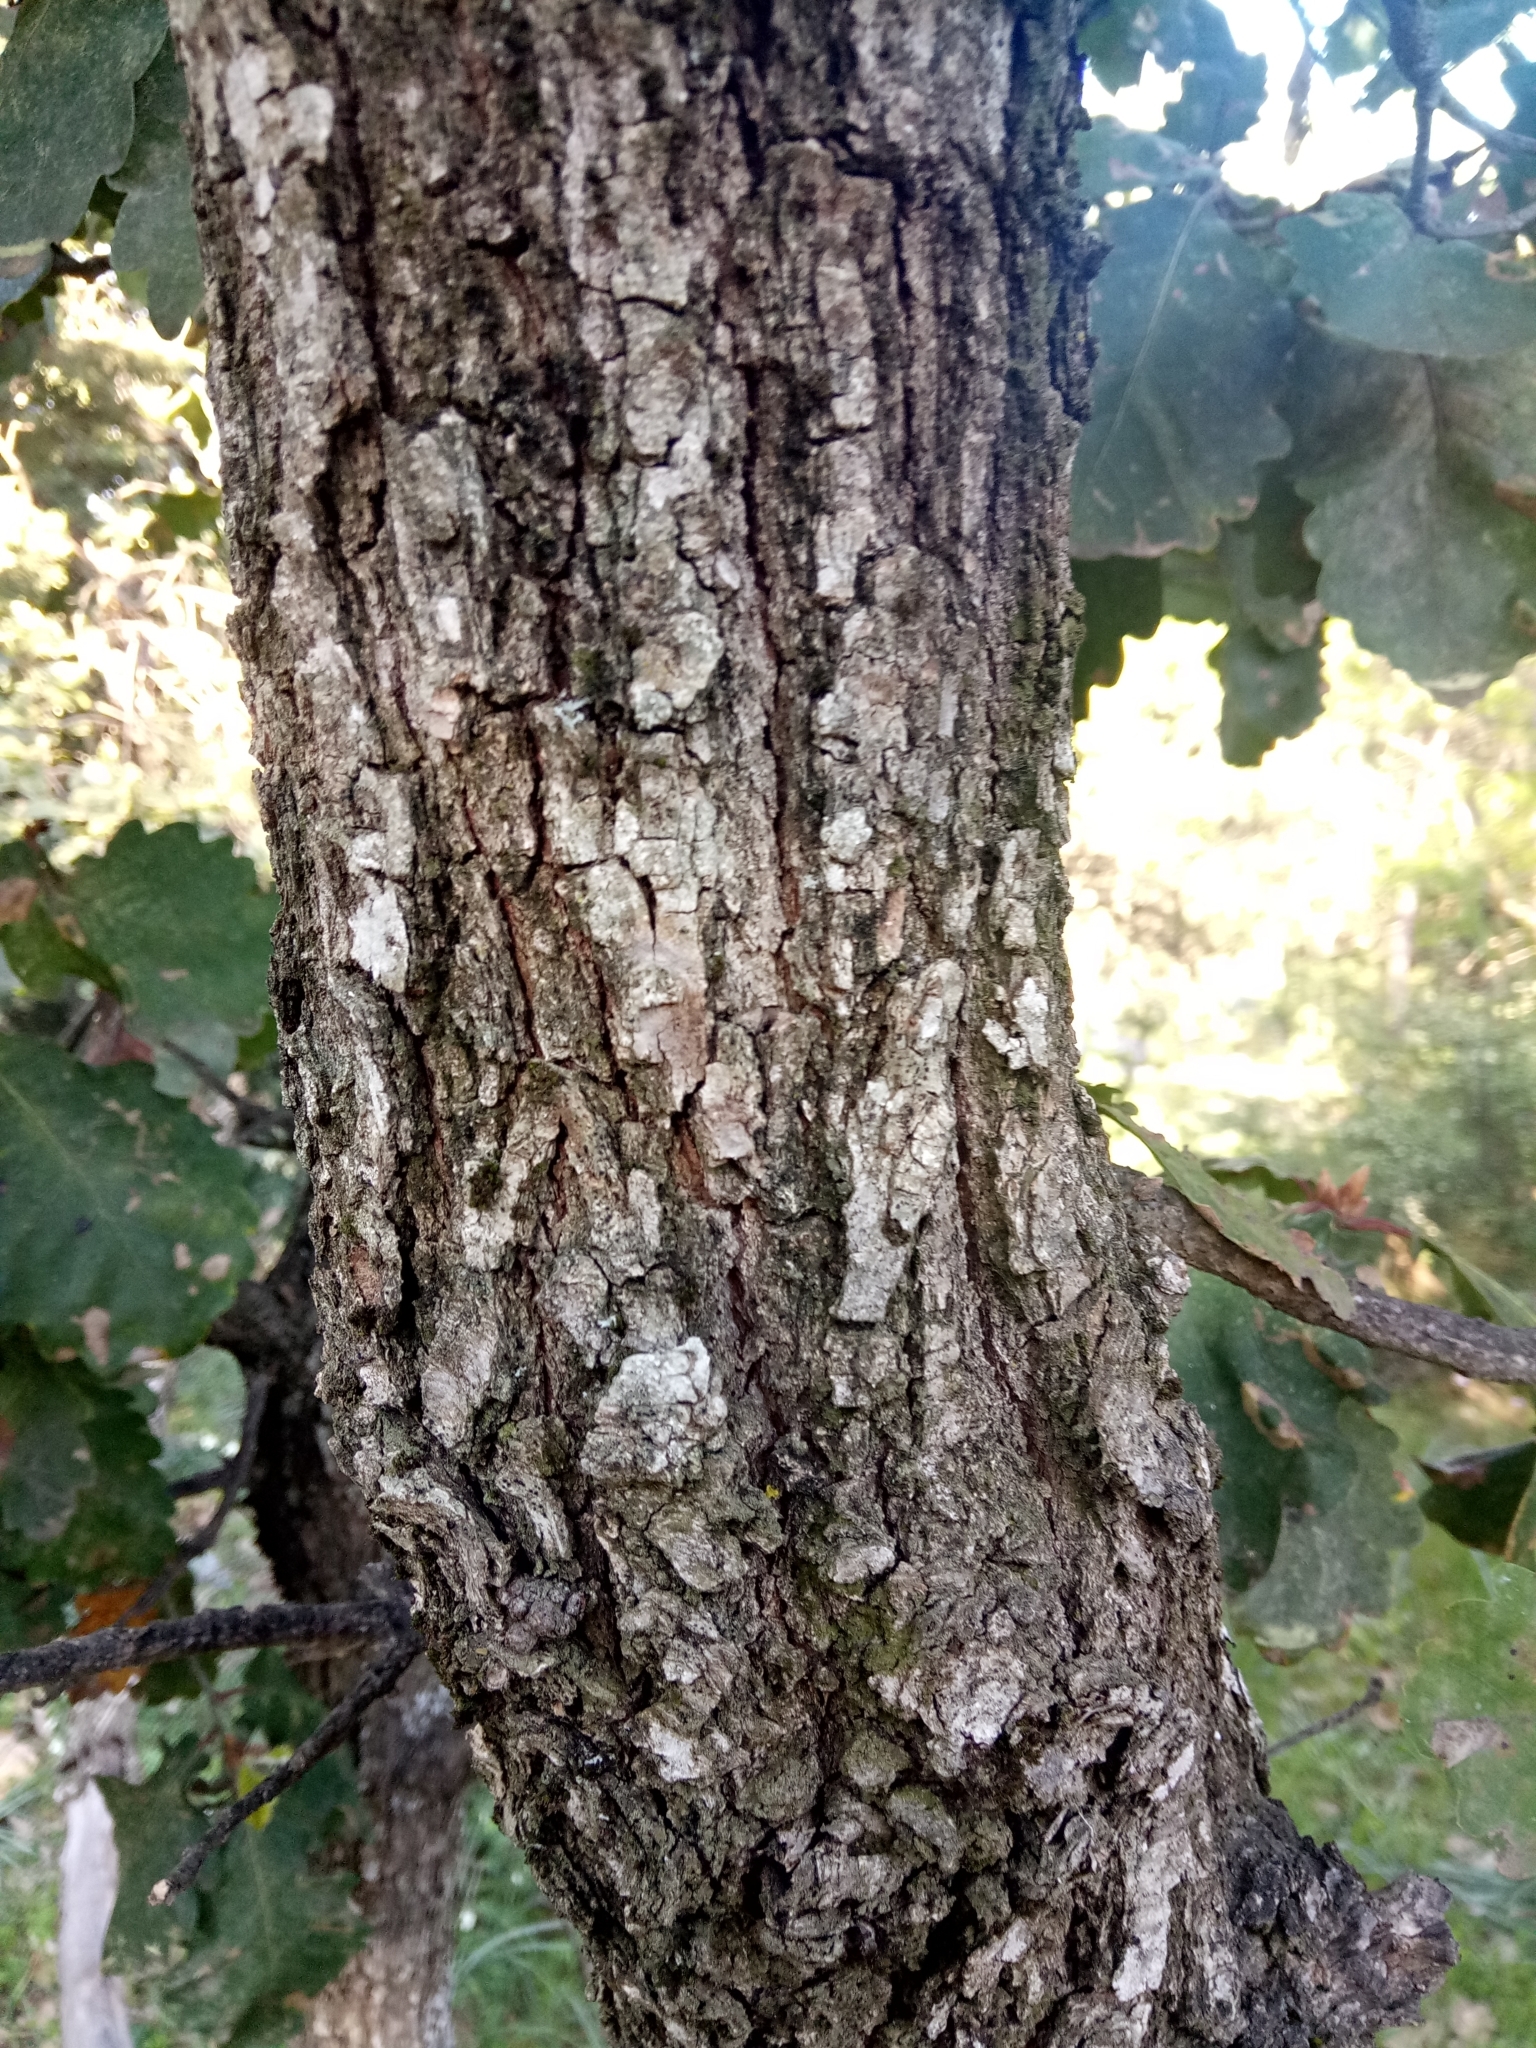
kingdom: Plantae
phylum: Tracheophyta
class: Magnoliopsida
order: Fagales
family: Fagaceae
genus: Quercus
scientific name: Quercus canariensis
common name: Algerian oak
